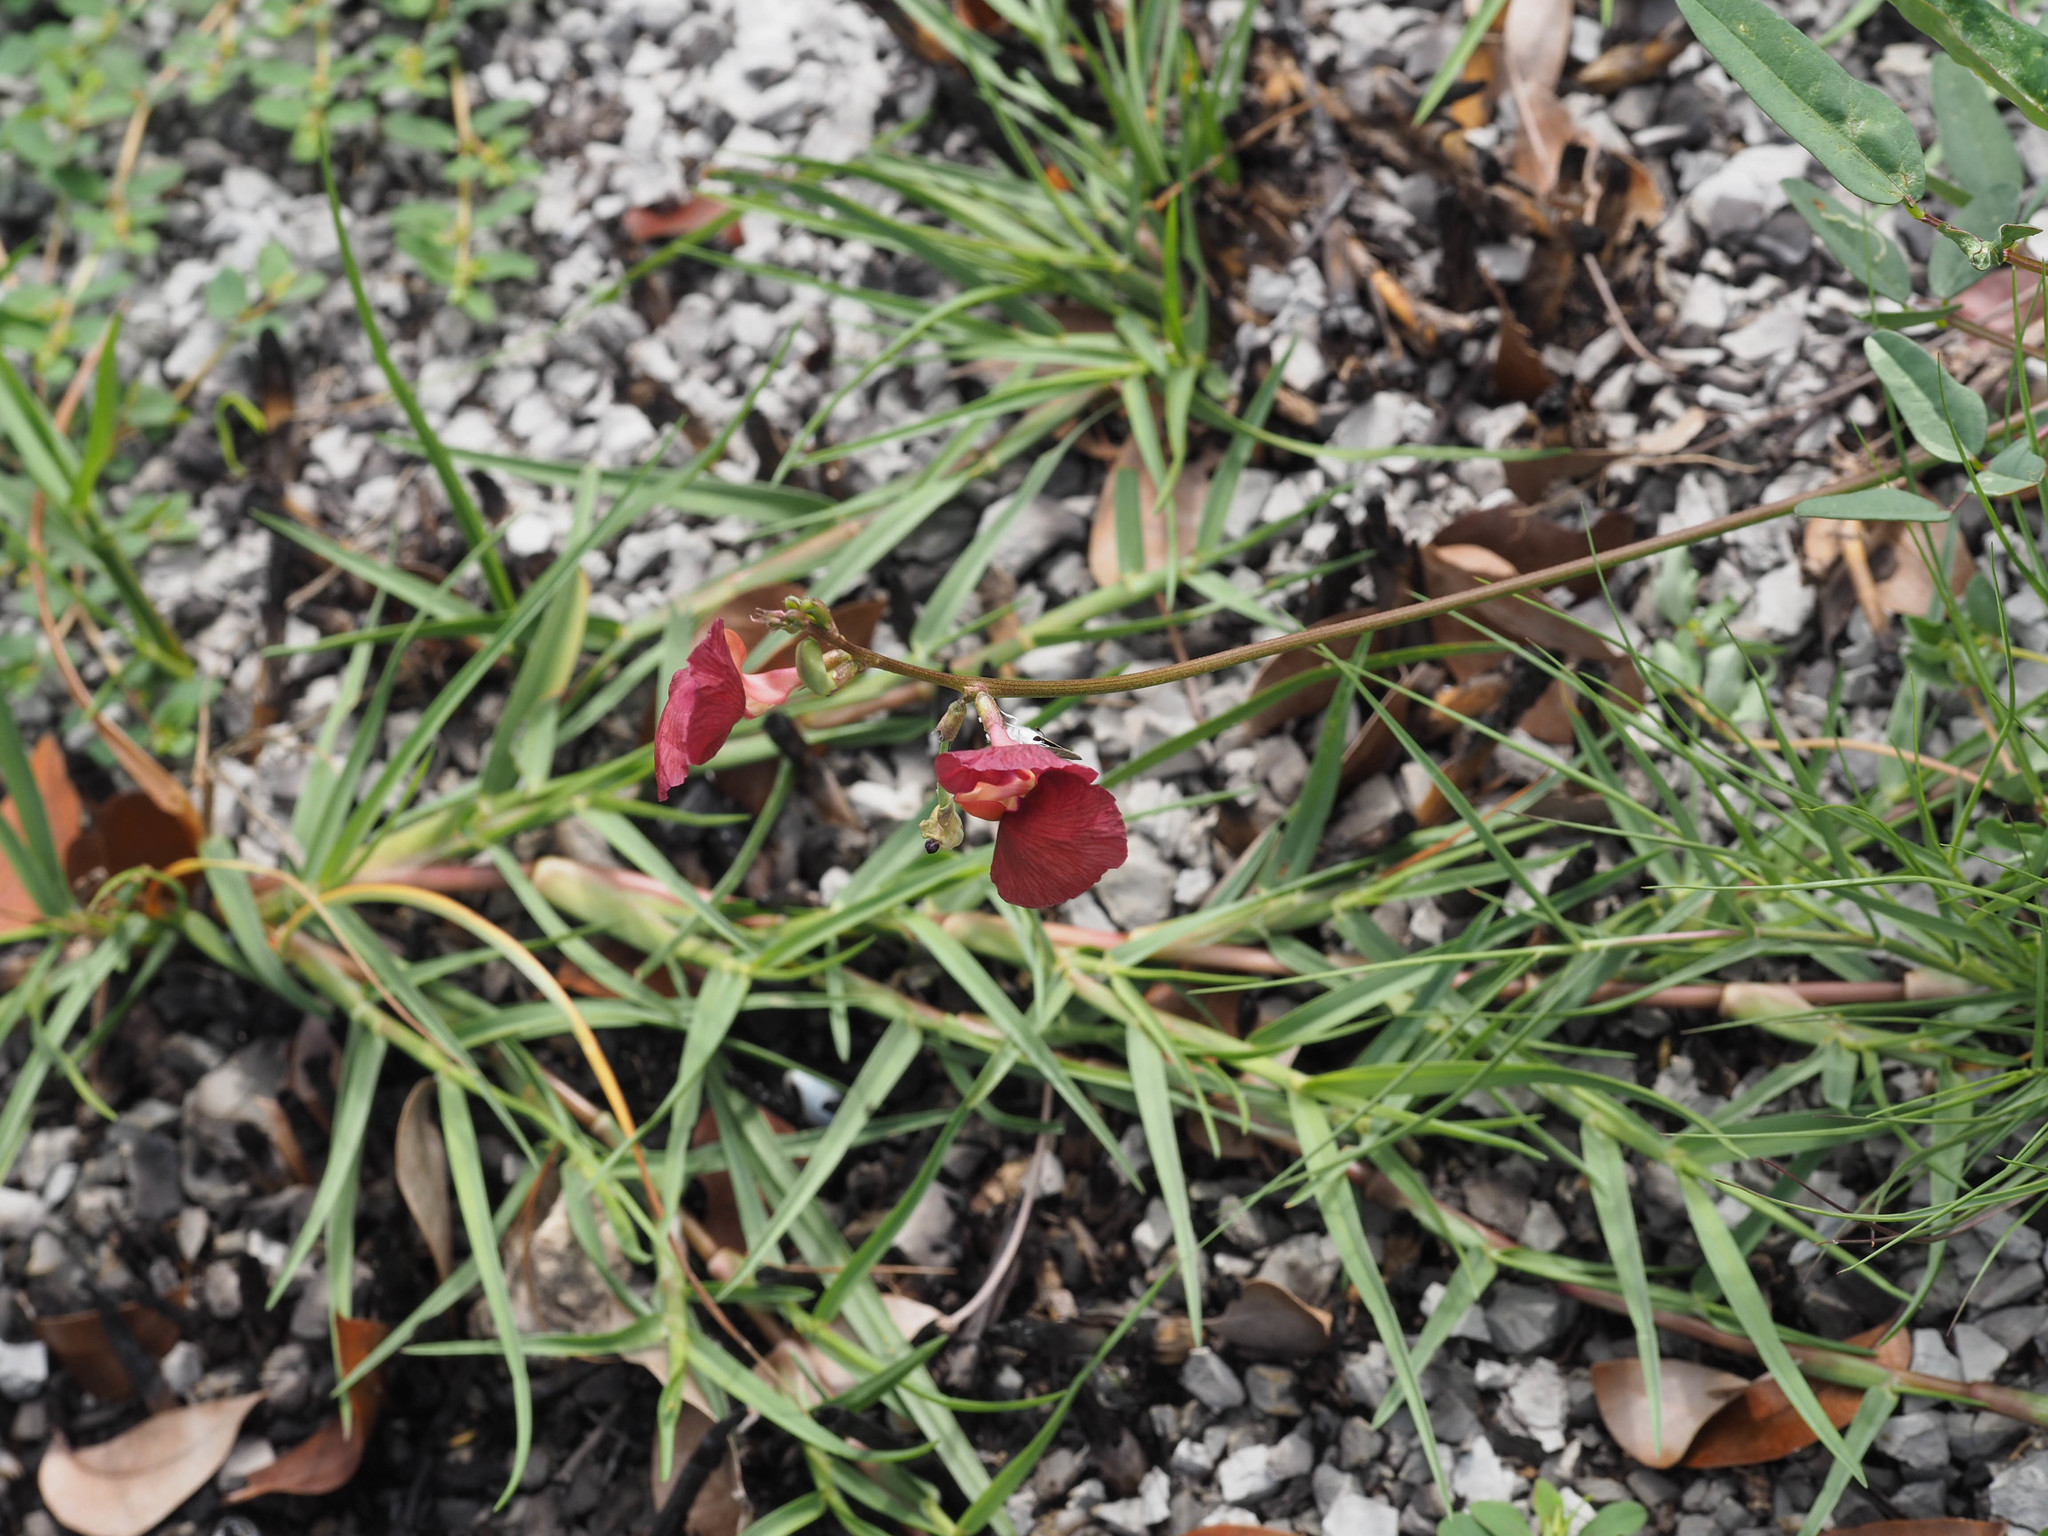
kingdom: Plantae
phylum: Tracheophyta
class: Magnoliopsida
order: Fabales
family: Fabaceae
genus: Macroptilium
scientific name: Macroptilium lathyroides
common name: Wild bushbean
